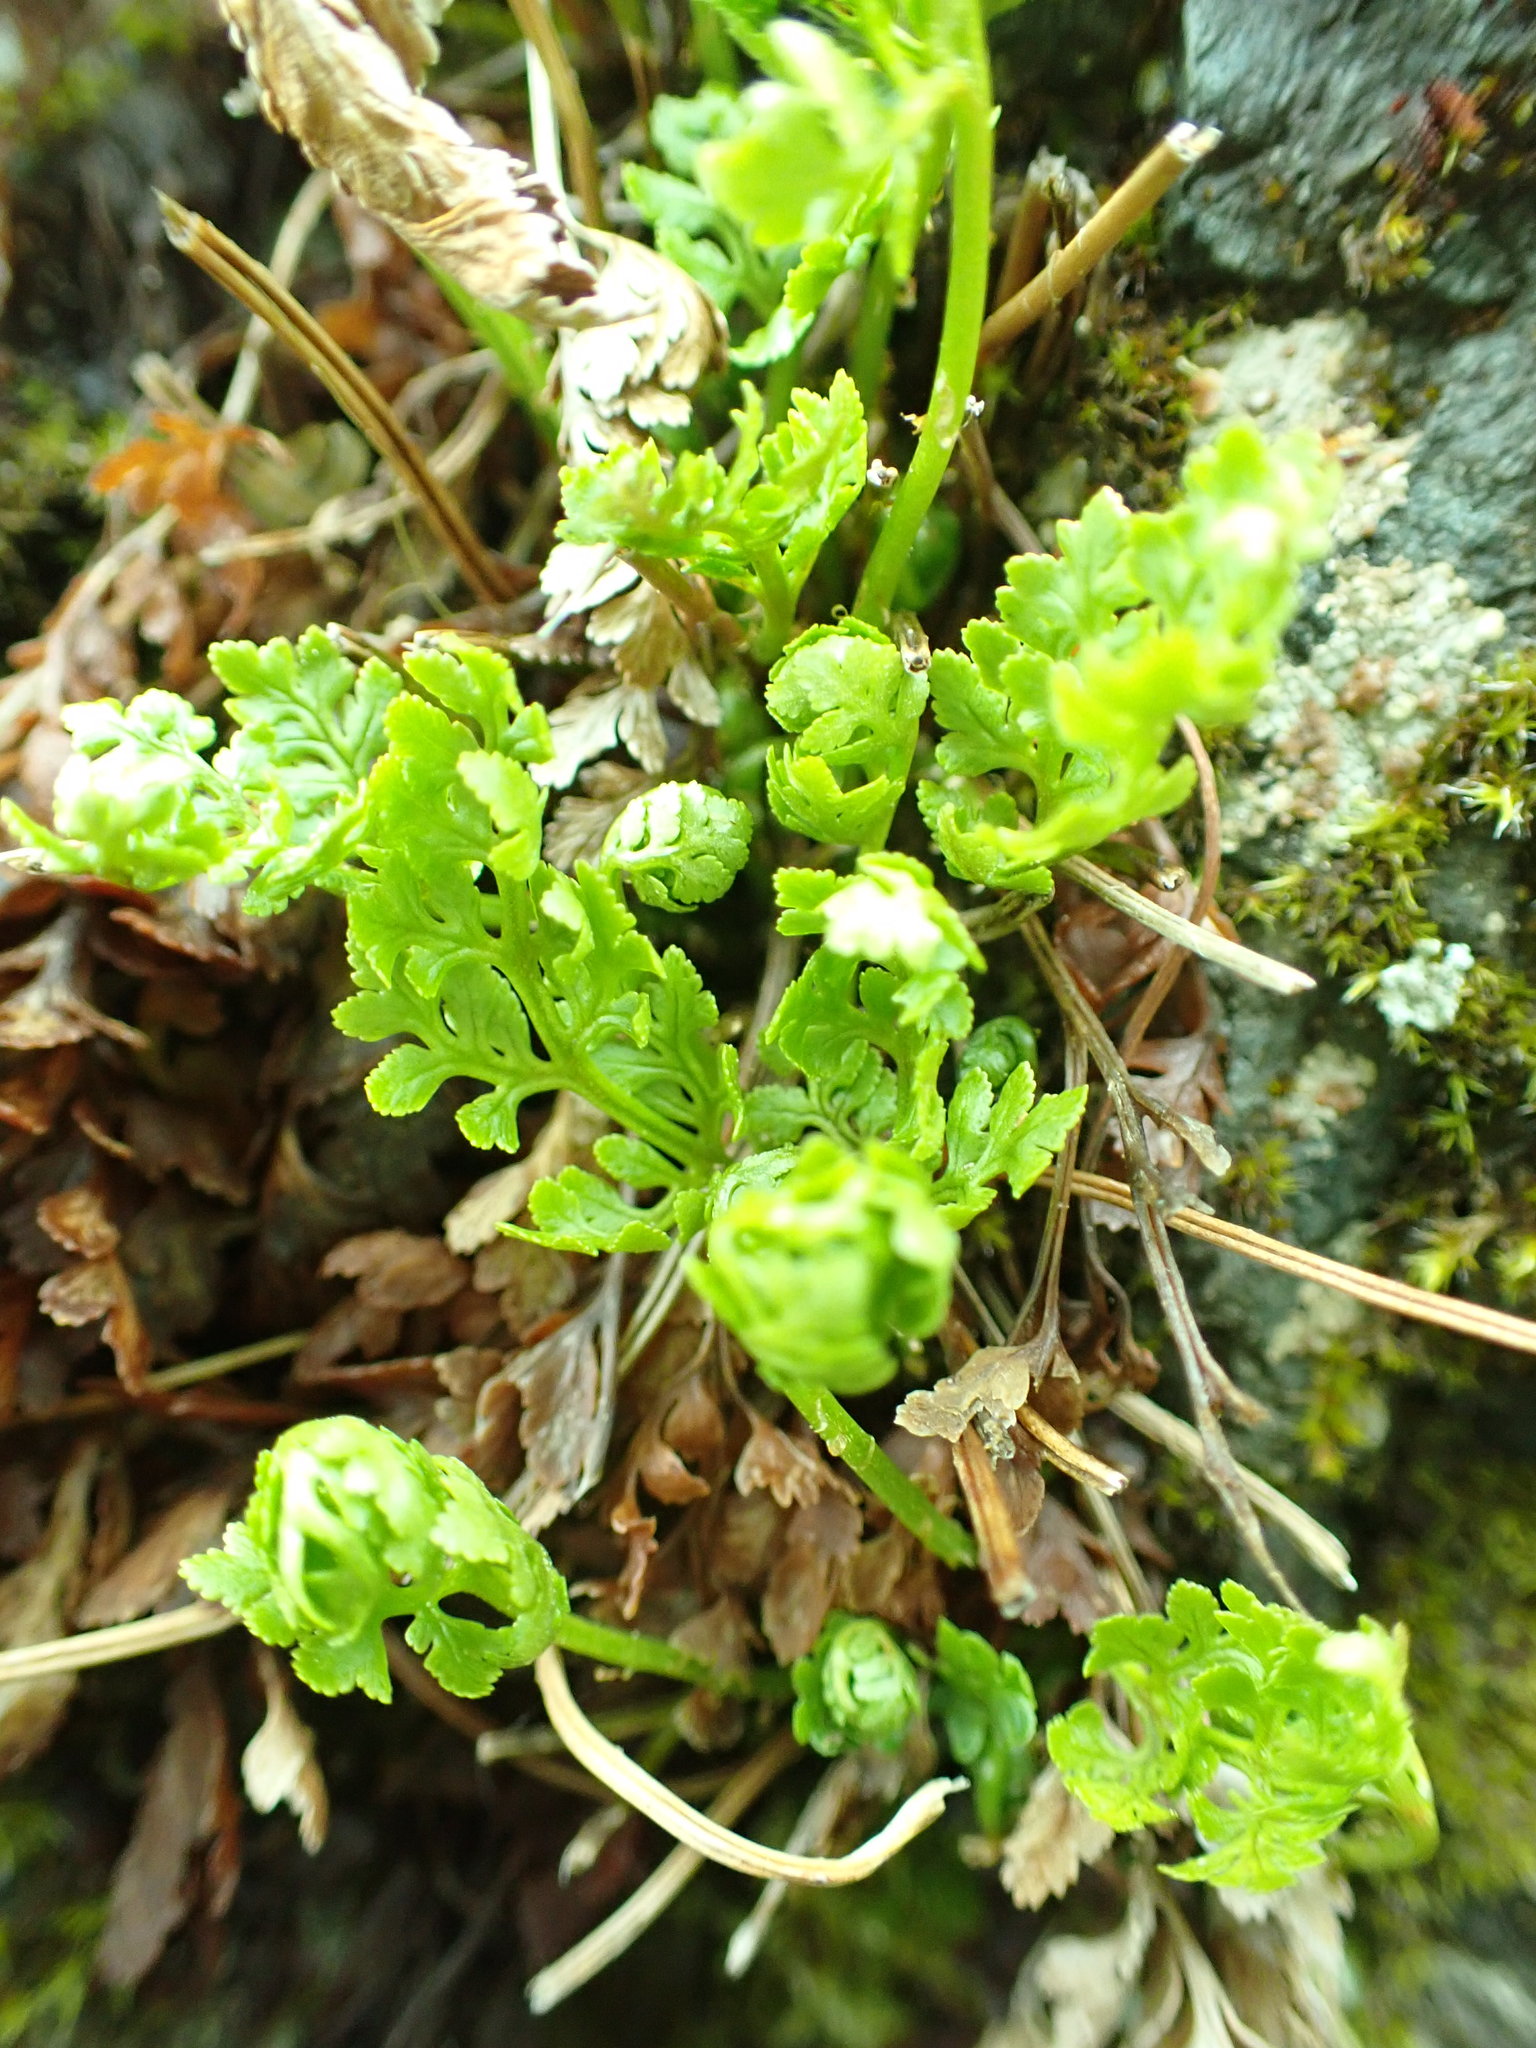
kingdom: Plantae
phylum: Tracheophyta
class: Polypodiopsida
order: Polypodiales
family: Pteridaceae
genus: Cryptogramma
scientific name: Cryptogramma acrostichoides
